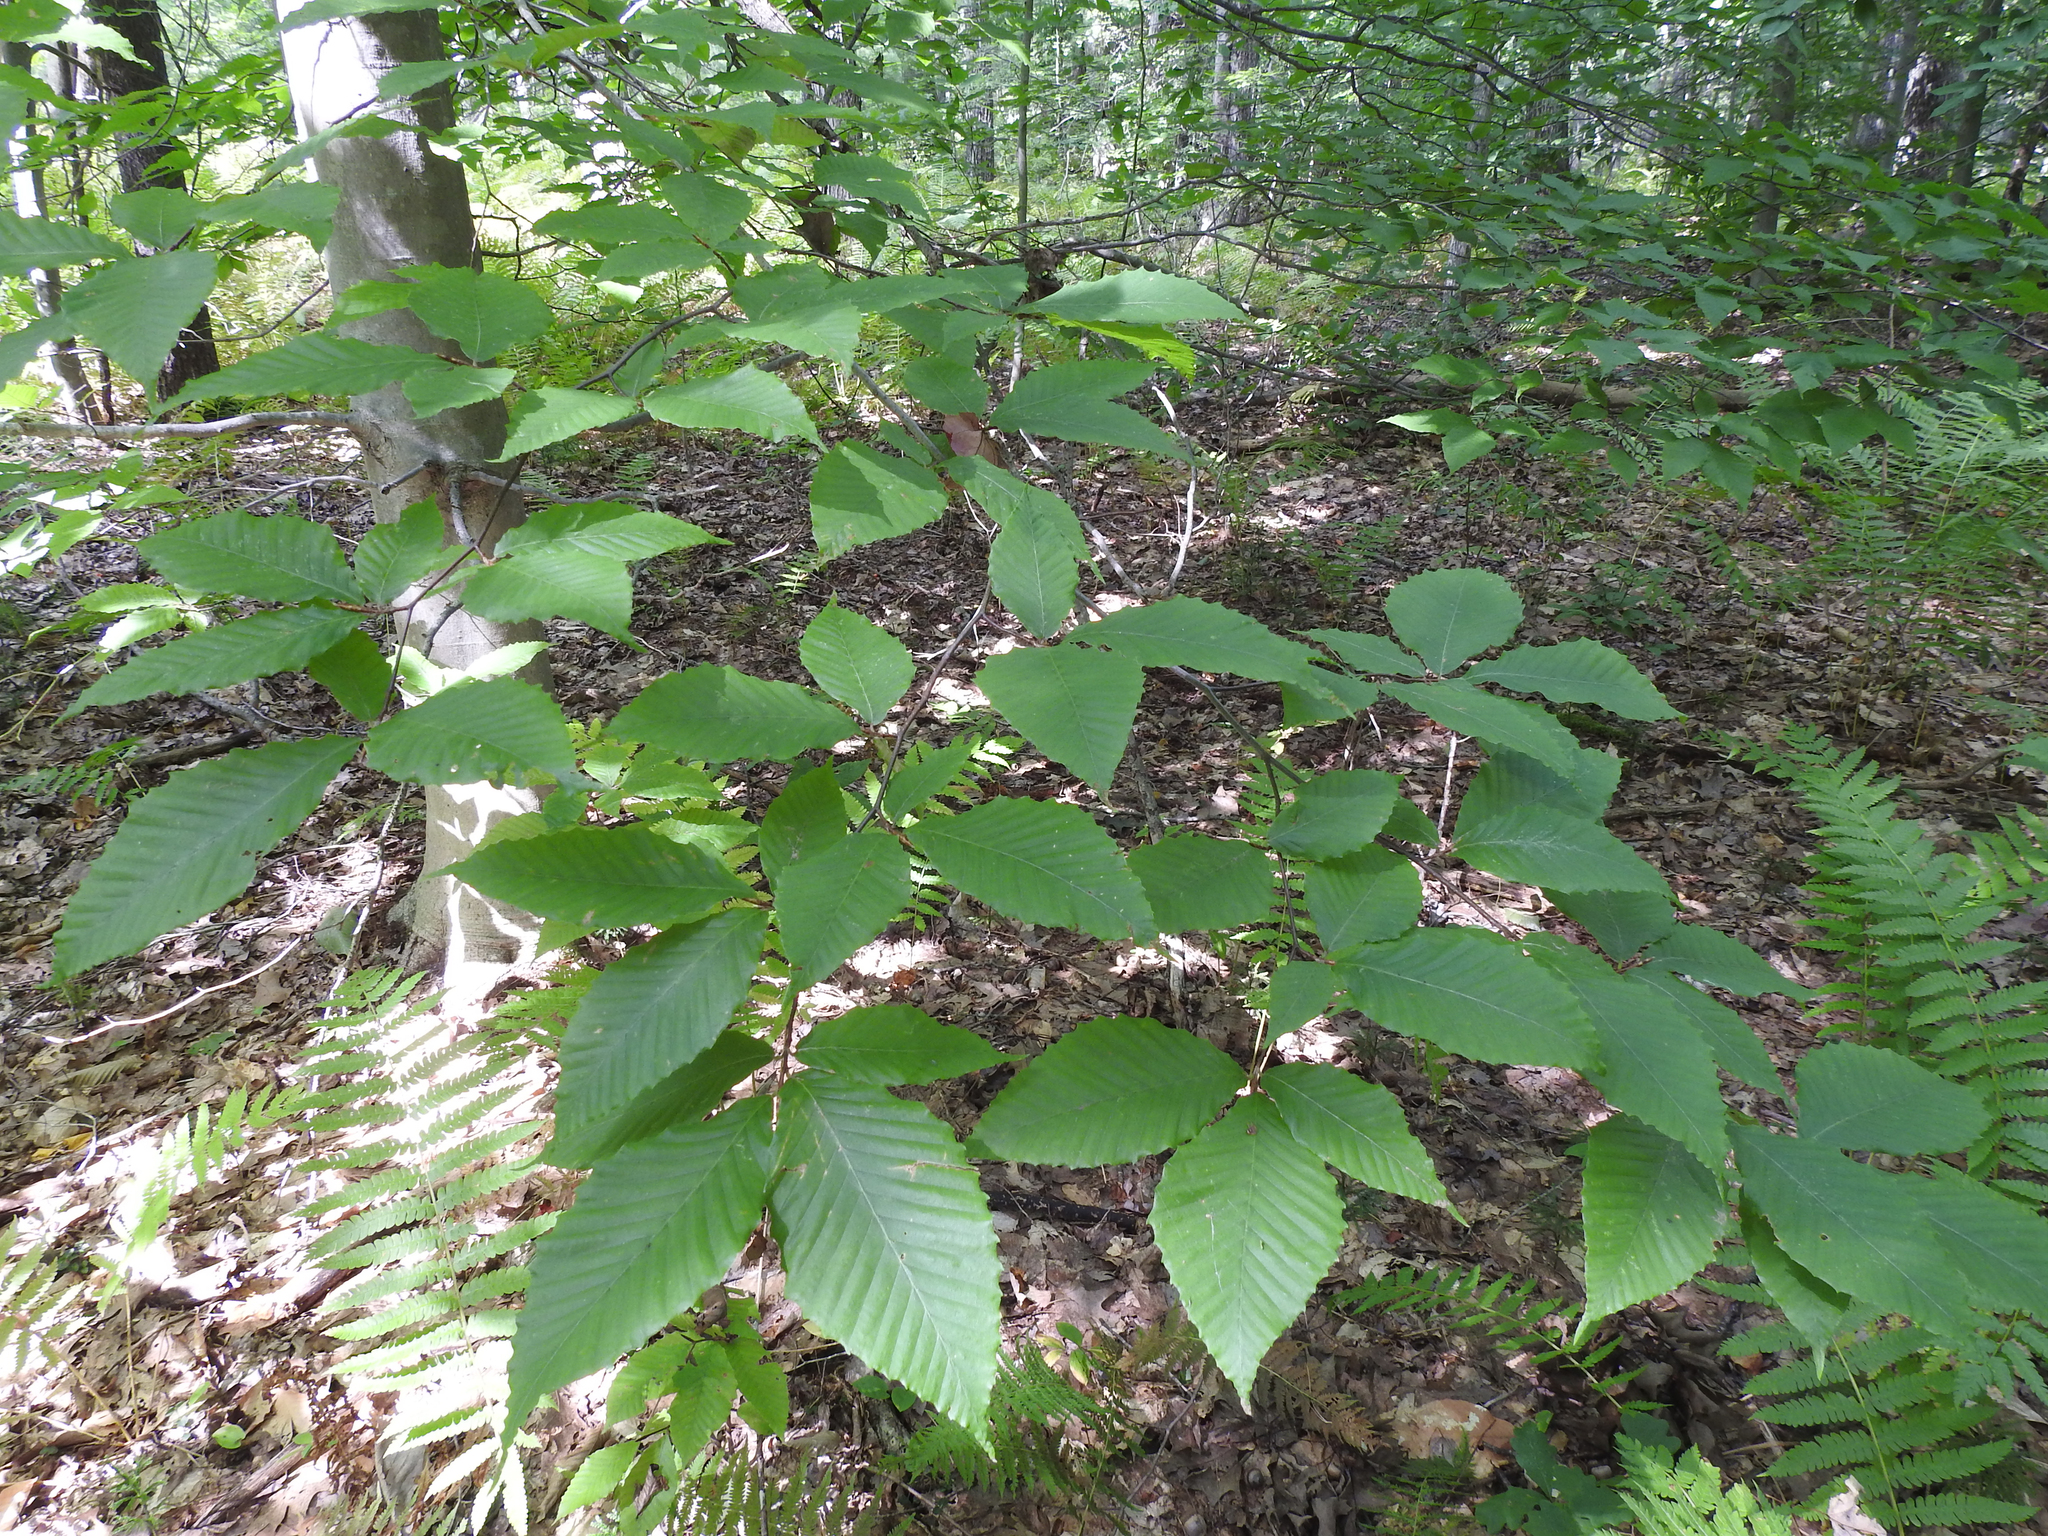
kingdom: Plantae
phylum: Tracheophyta
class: Magnoliopsida
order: Fagales
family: Fagaceae
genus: Fagus
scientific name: Fagus grandifolia
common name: American beech
